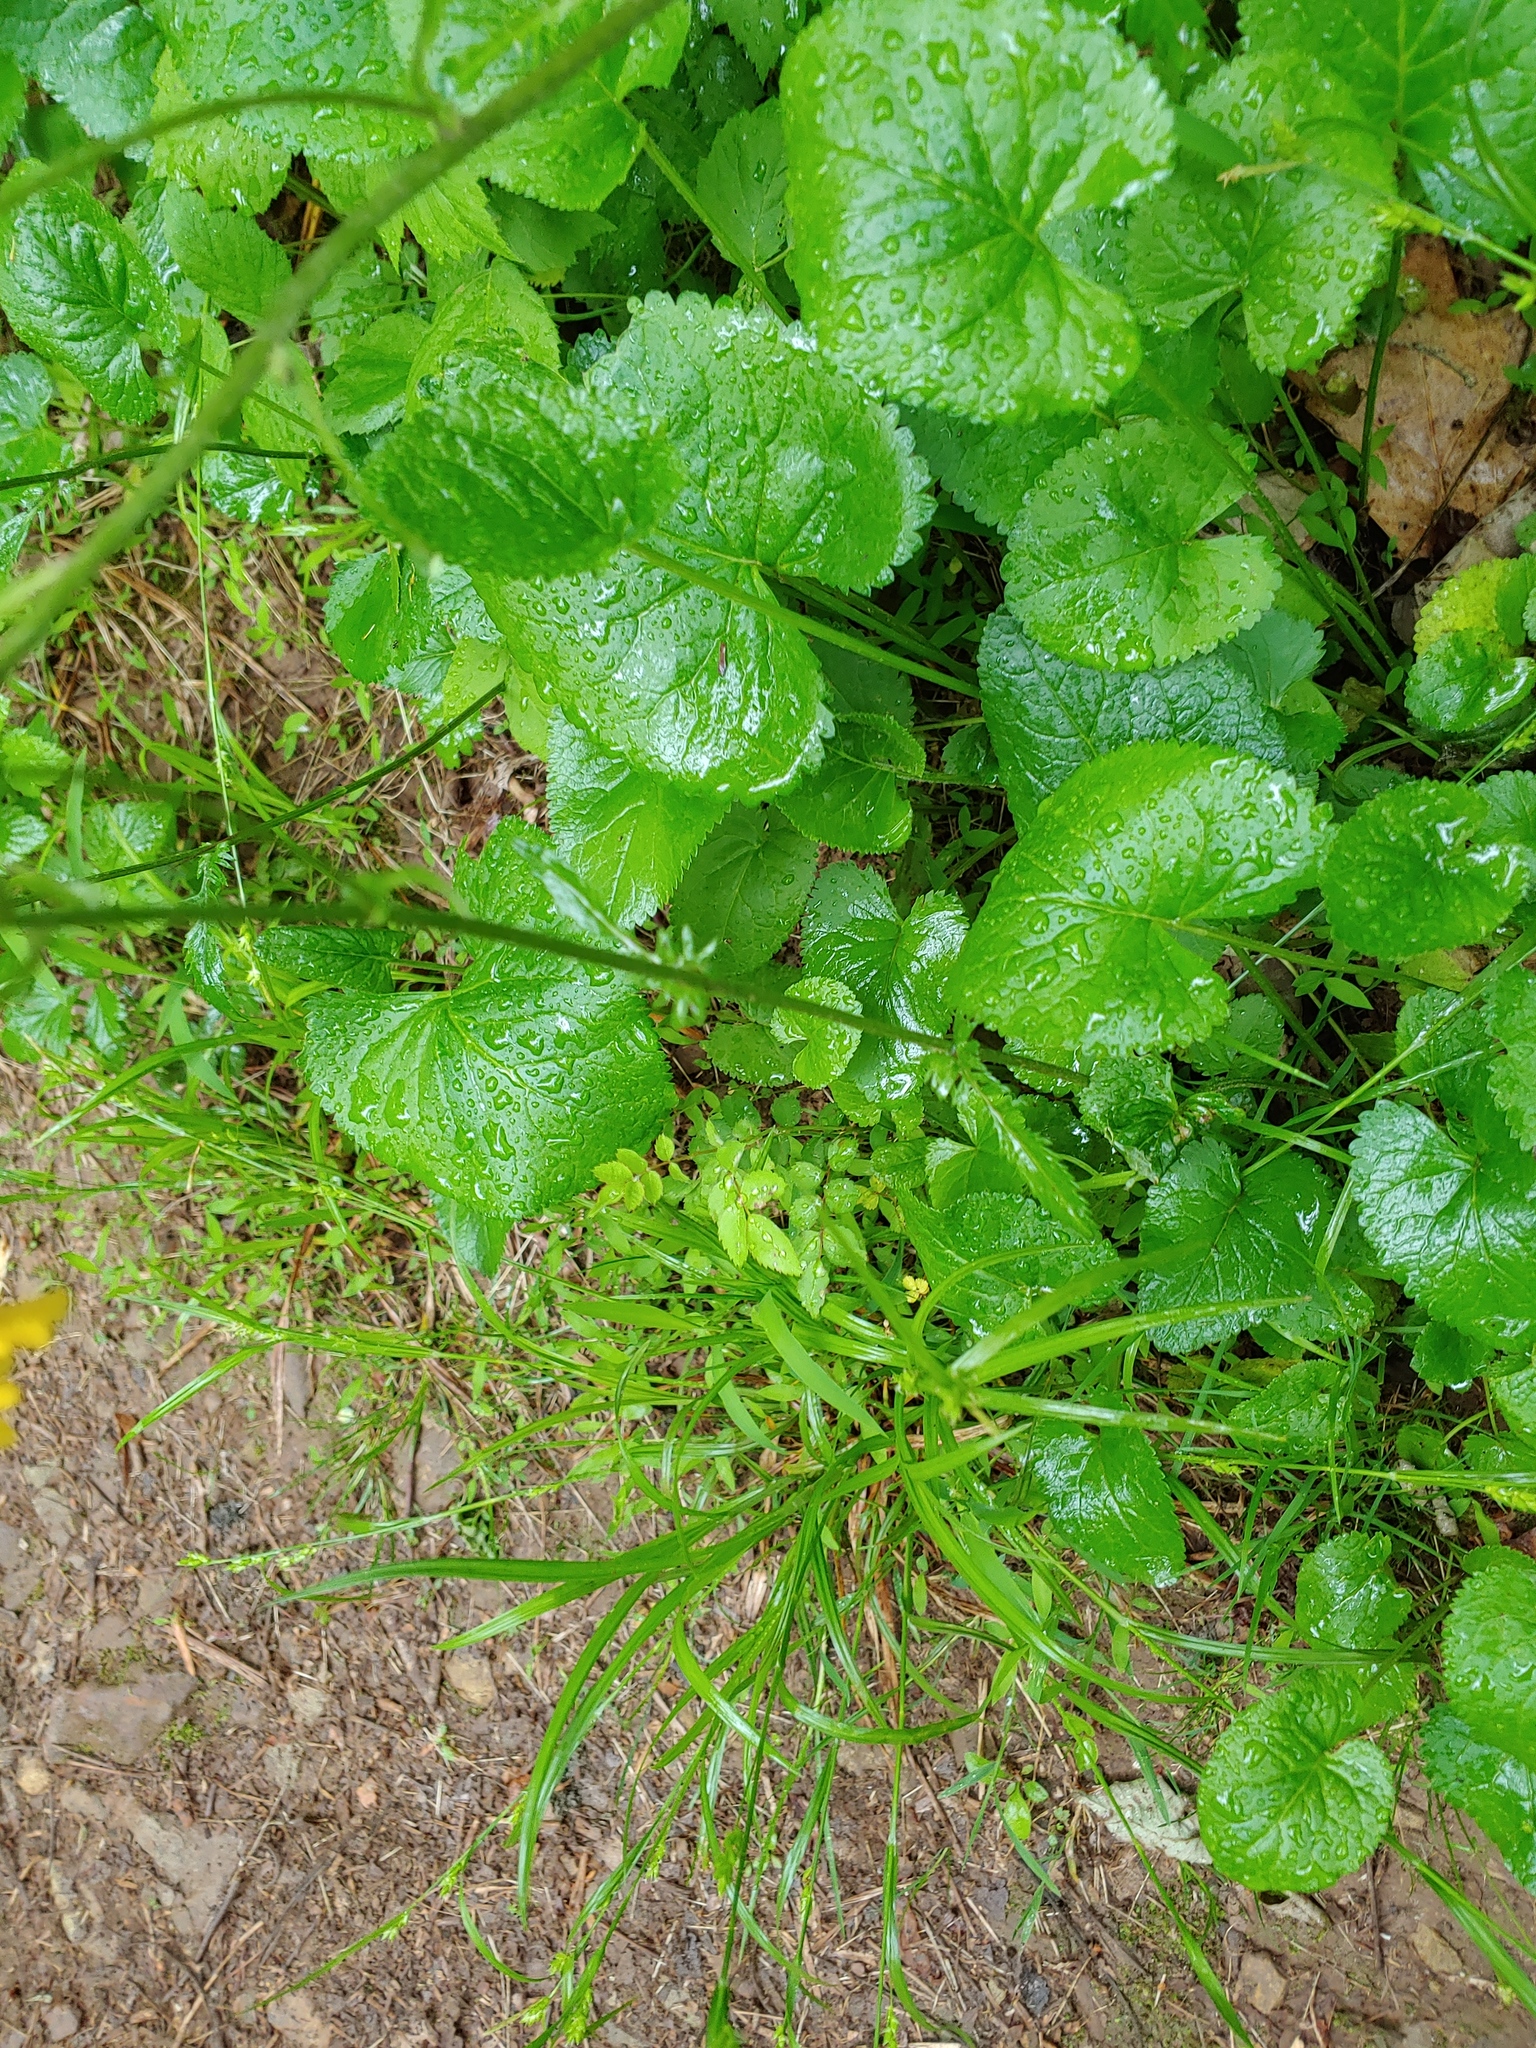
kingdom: Plantae
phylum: Tracheophyta
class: Magnoliopsida
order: Asterales
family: Asteraceae
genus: Packera
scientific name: Packera aurea
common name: Golden groundsel
